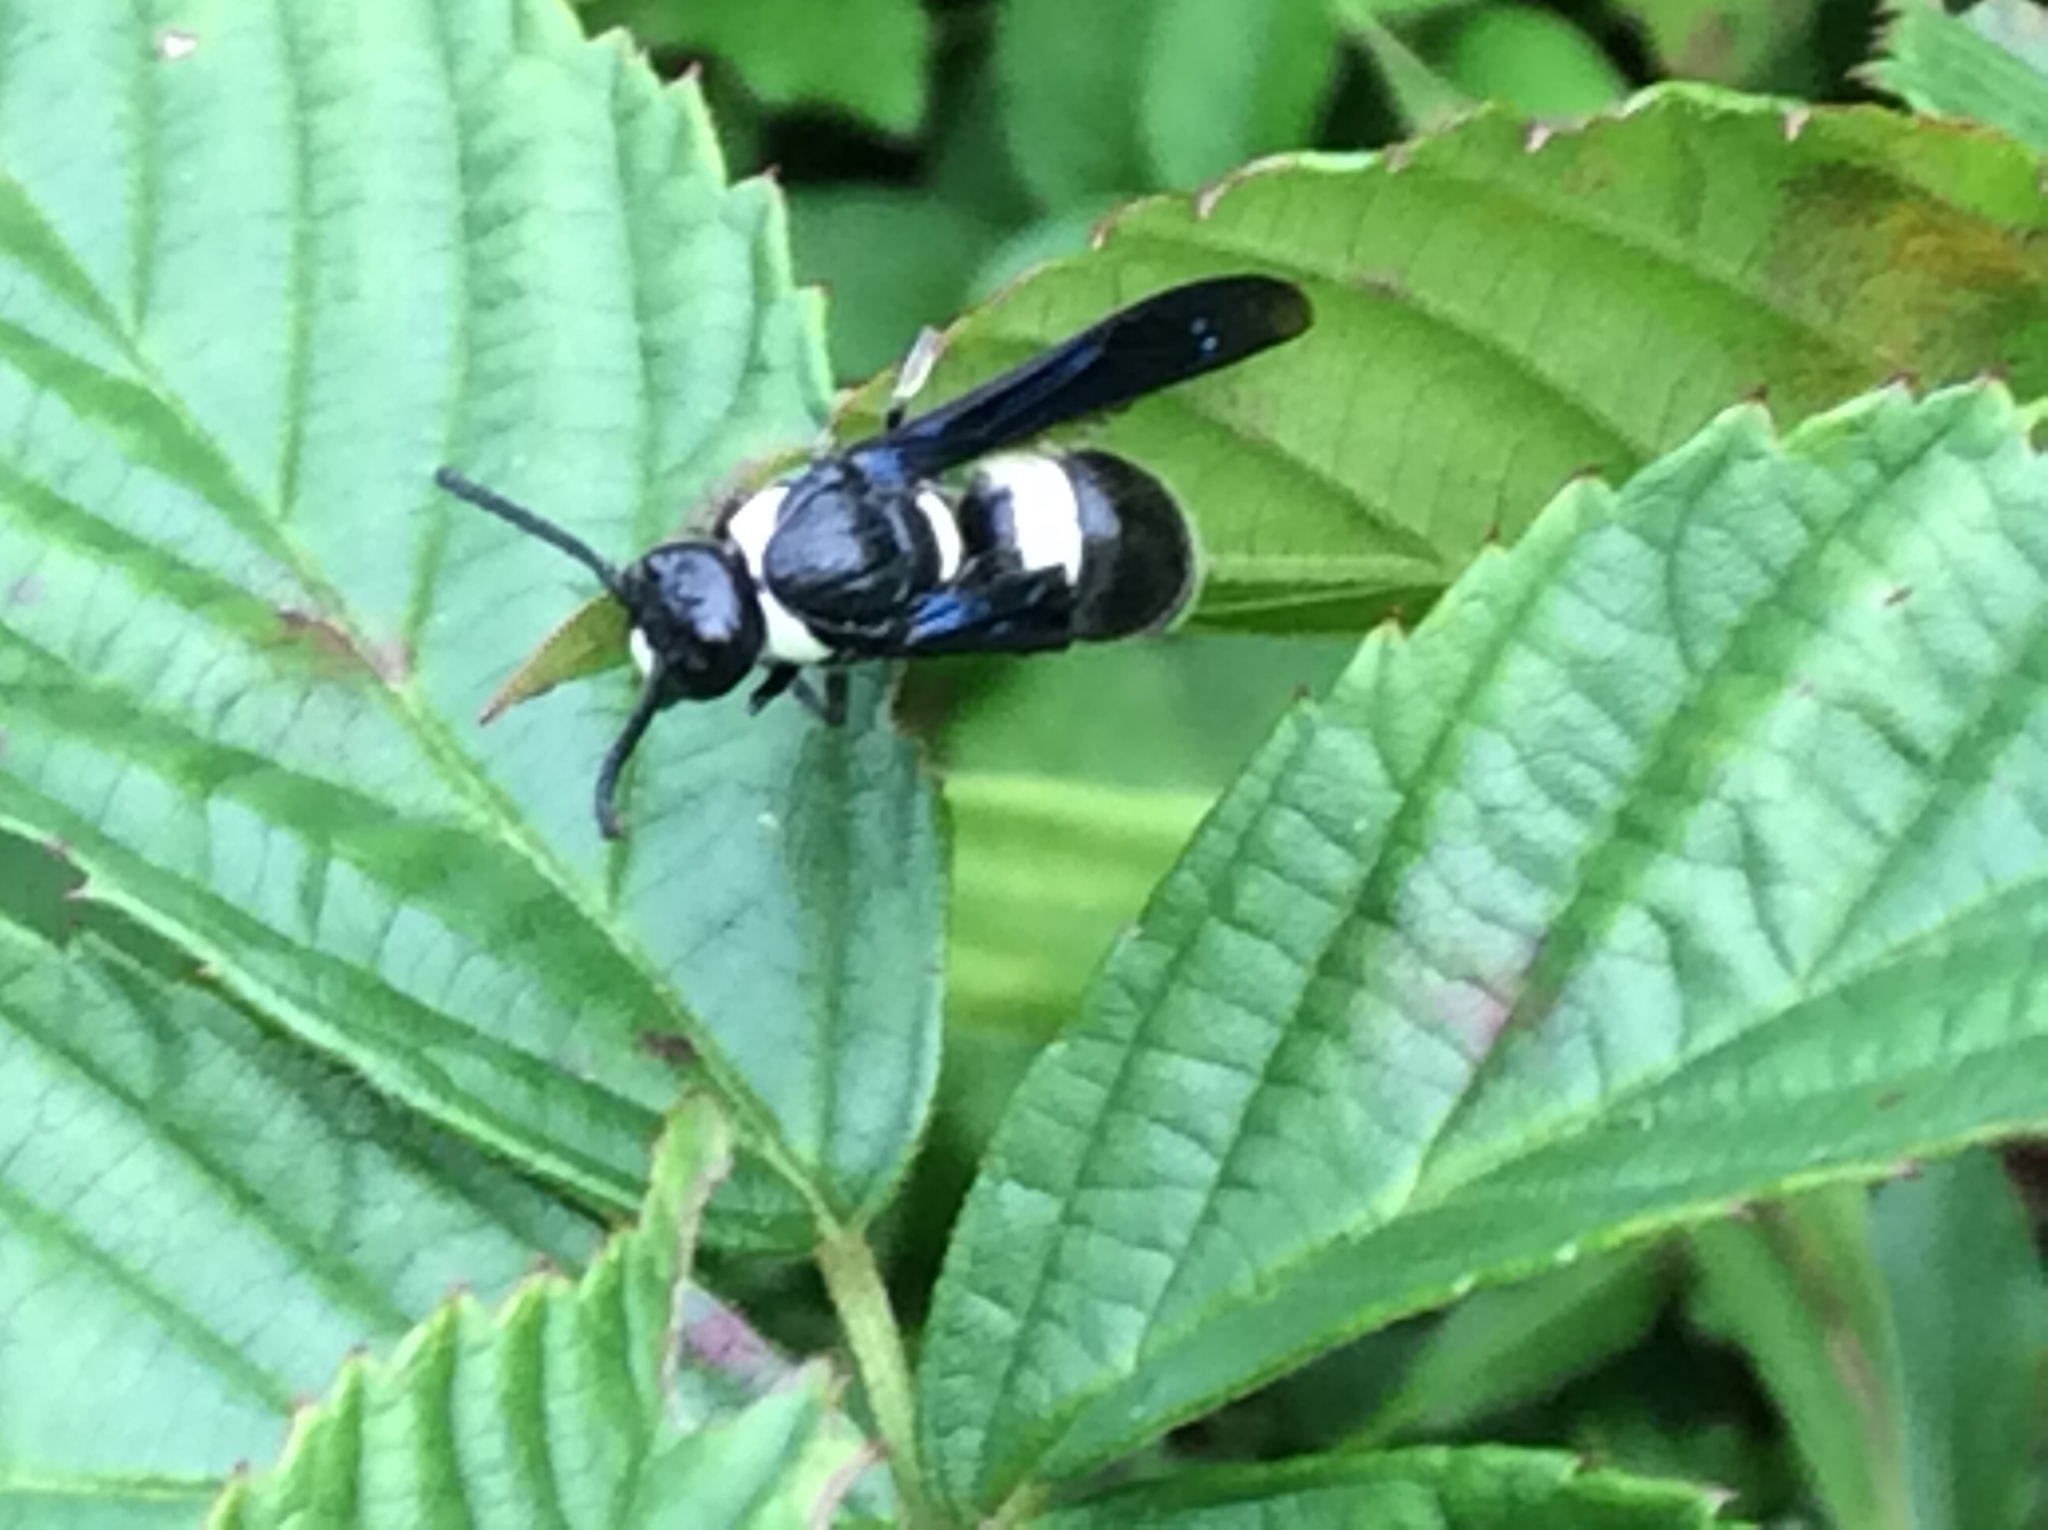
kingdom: Animalia
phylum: Arthropoda
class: Insecta
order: Hymenoptera
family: Eumenidae
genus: Monobia
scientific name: Monobia quadridens
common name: Four-toothed mason wasp
